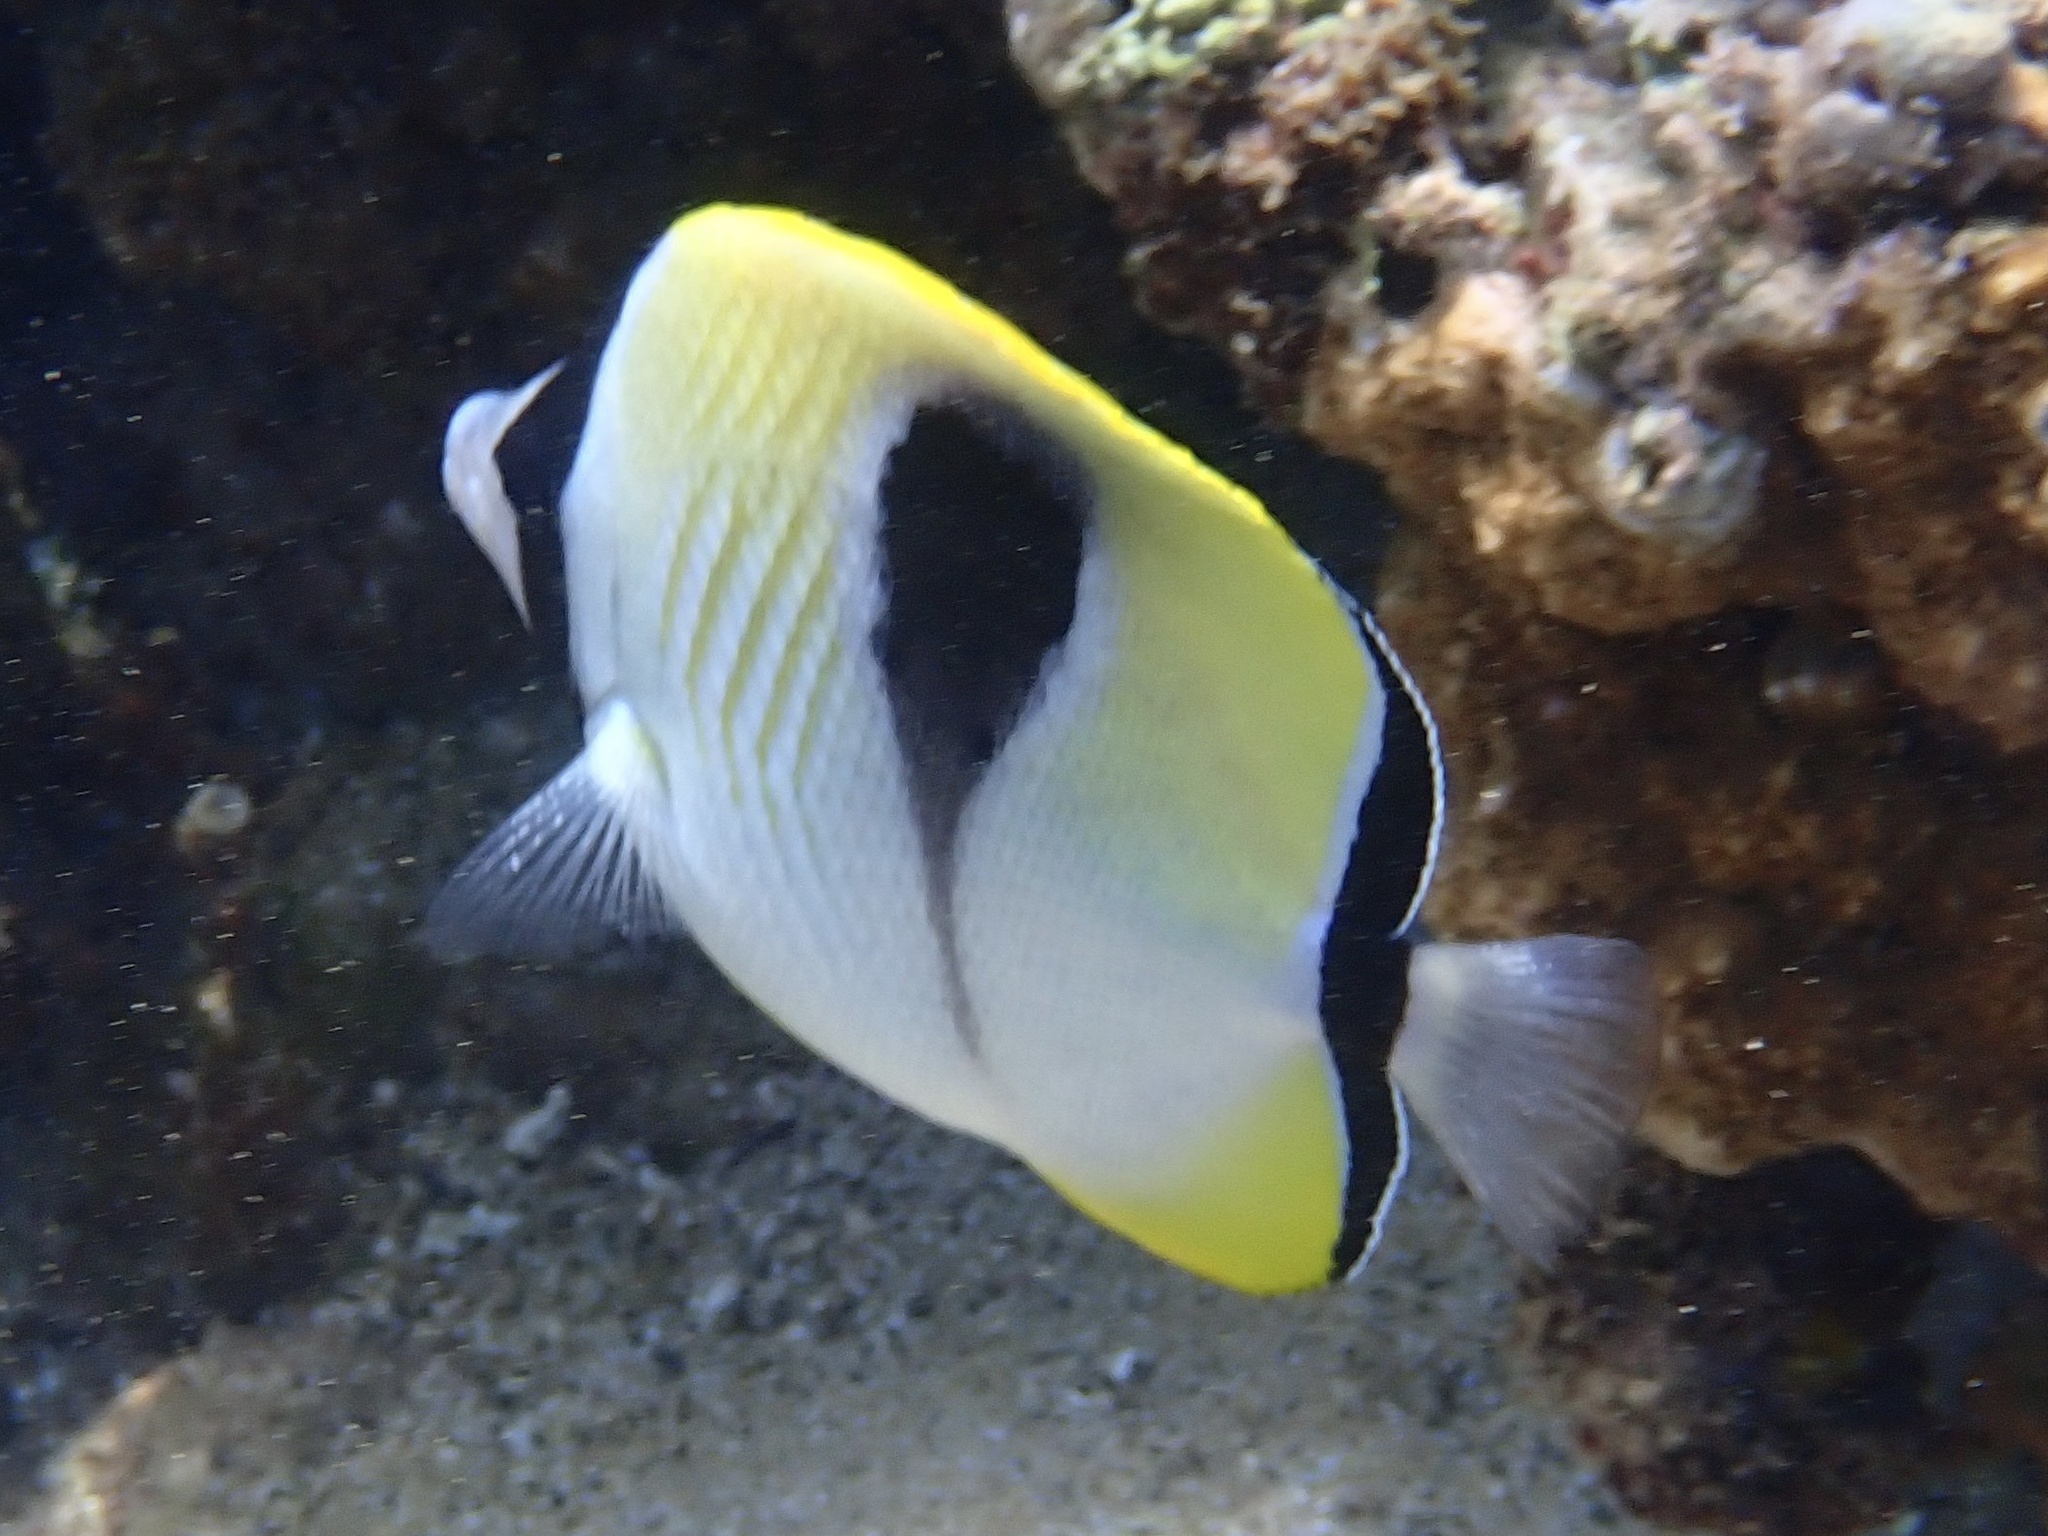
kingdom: Animalia
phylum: Chordata
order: Perciformes
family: Chaetodontidae
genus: Chaetodon
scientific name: Chaetodon unimaculatus
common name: Teardrop butterflyfish
